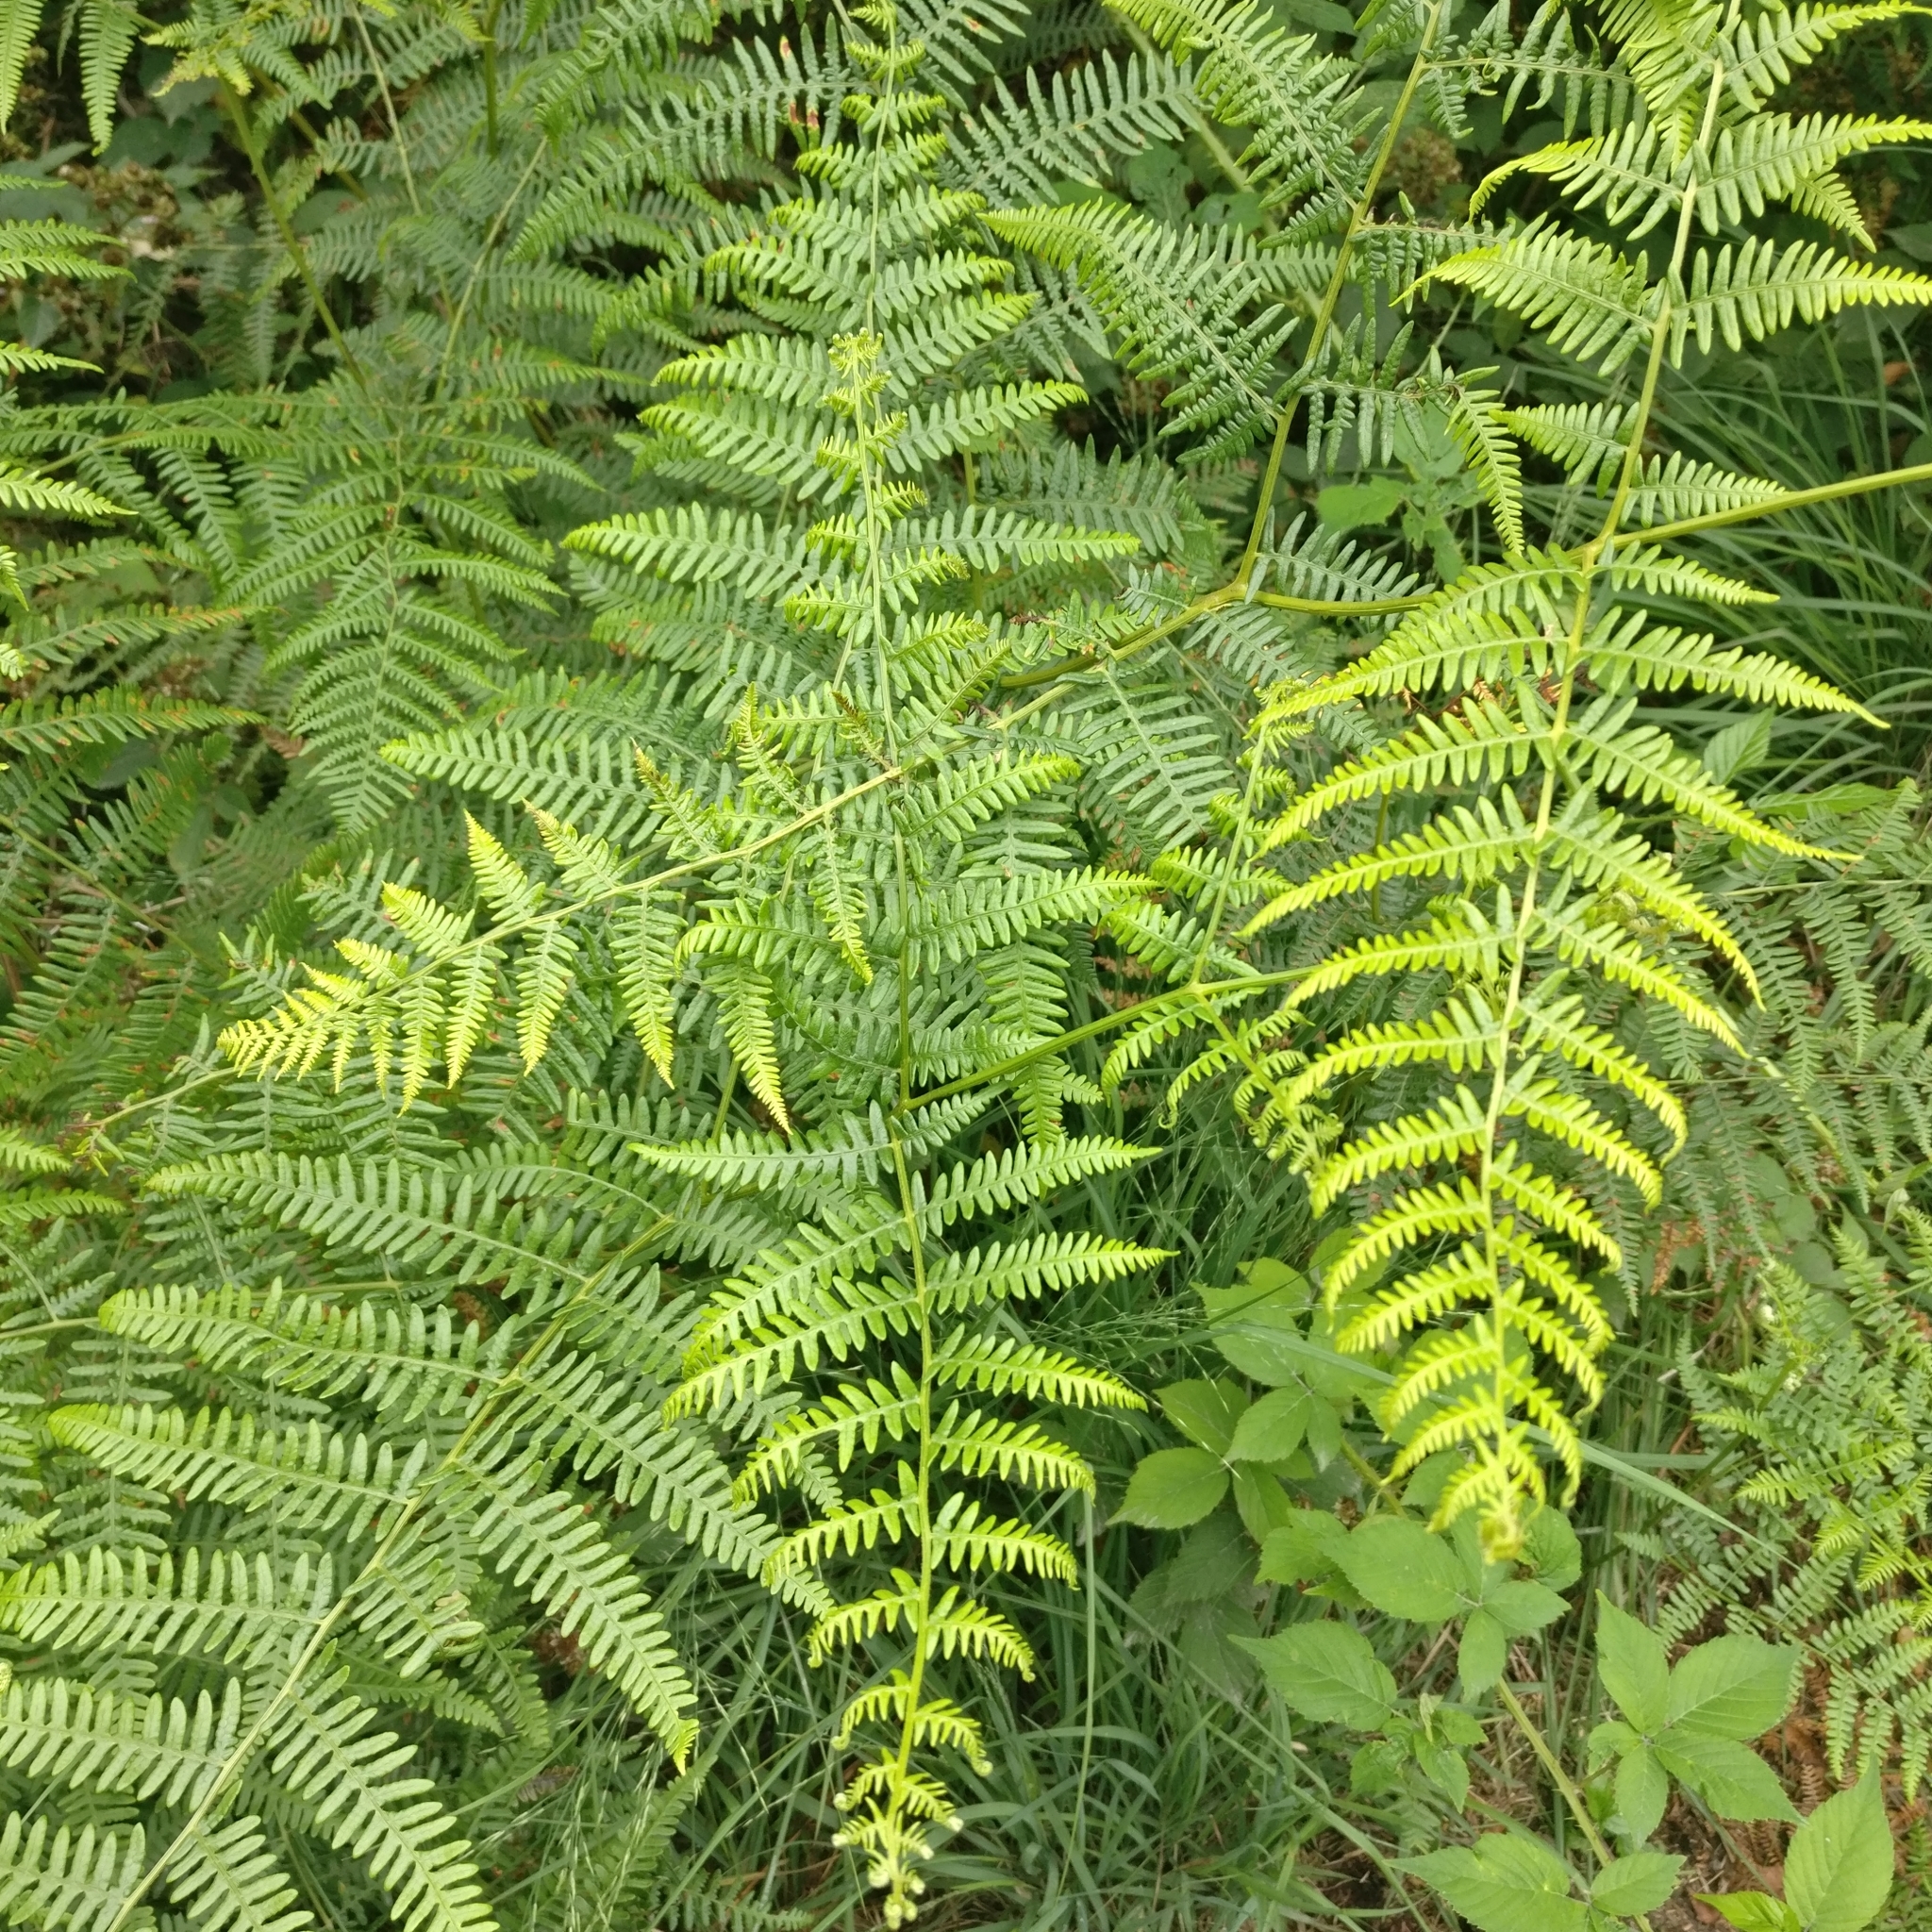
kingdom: Plantae
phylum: Tracheophyta
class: Polypodiopsida
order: Polypodiales
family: Dennstaedtiaceae
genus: Pteridium
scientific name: Pteridium aquilinum
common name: Bracken
